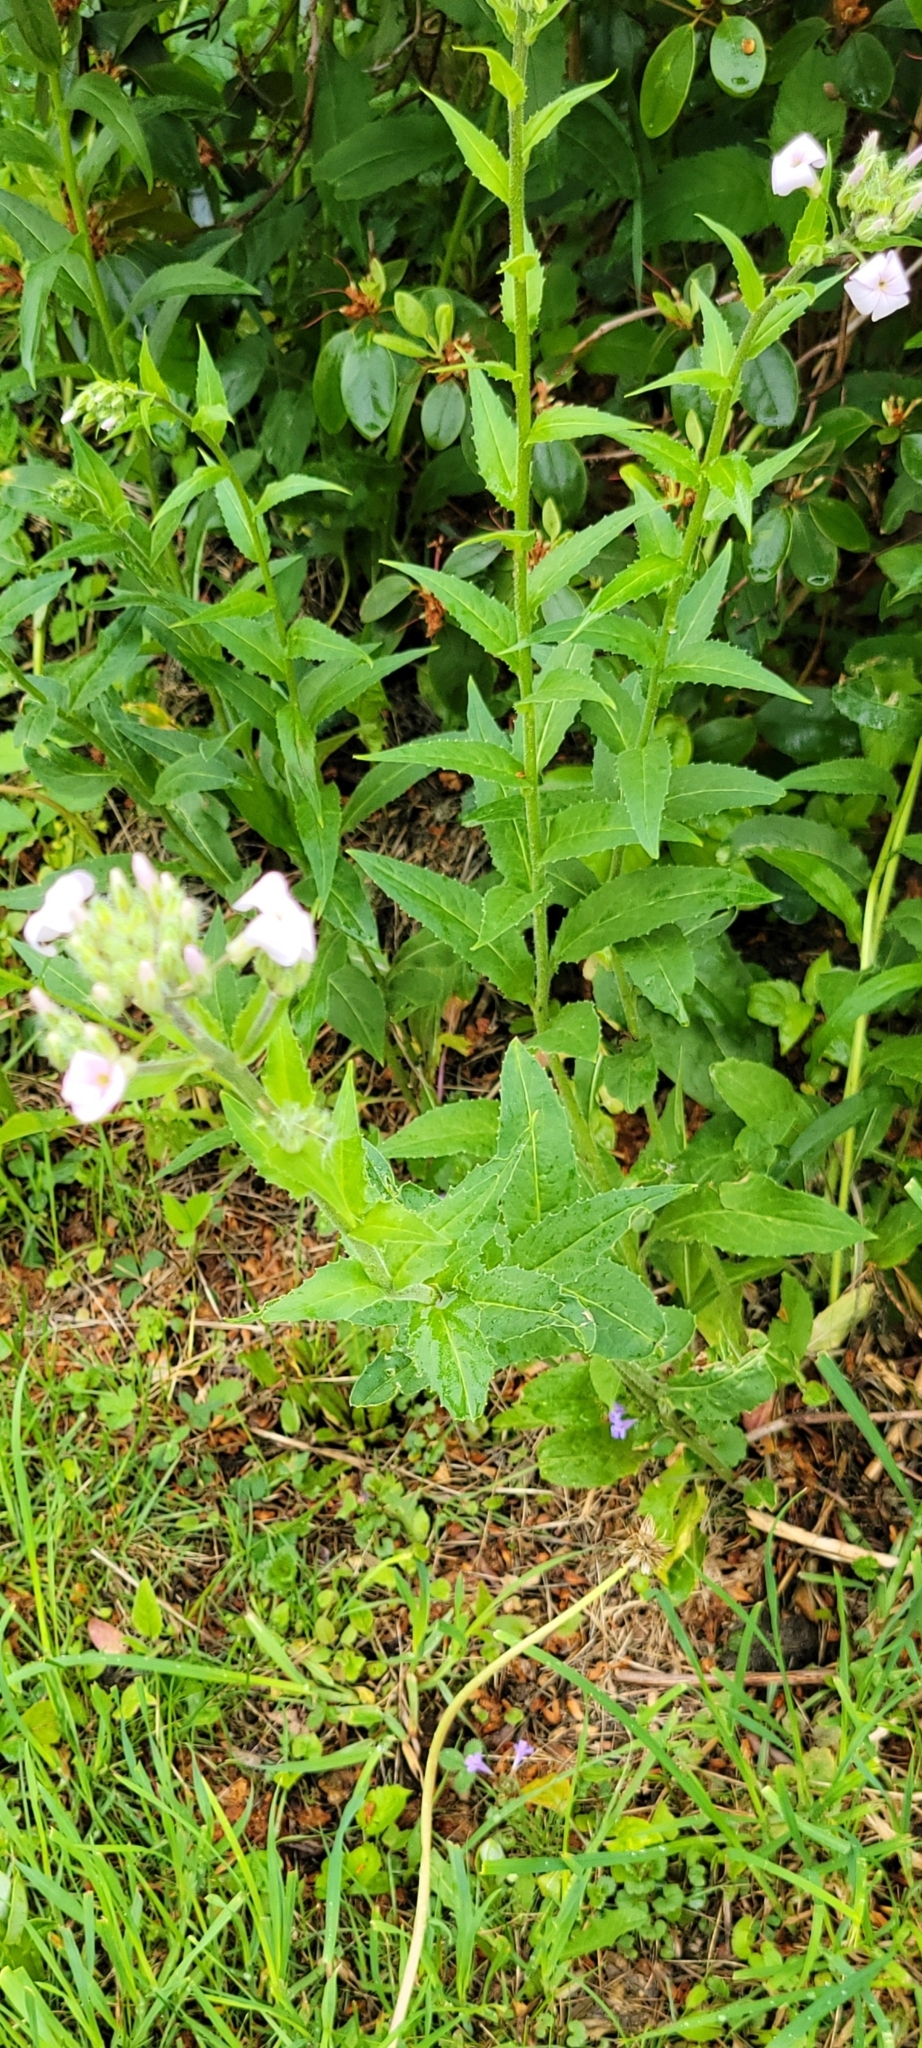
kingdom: Plantae
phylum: Tracheophyta
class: Magnoliopsida
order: Brassicales
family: Brassicaceae
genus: Hesperis
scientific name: Hesperis matronalis
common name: Dame's-violet
